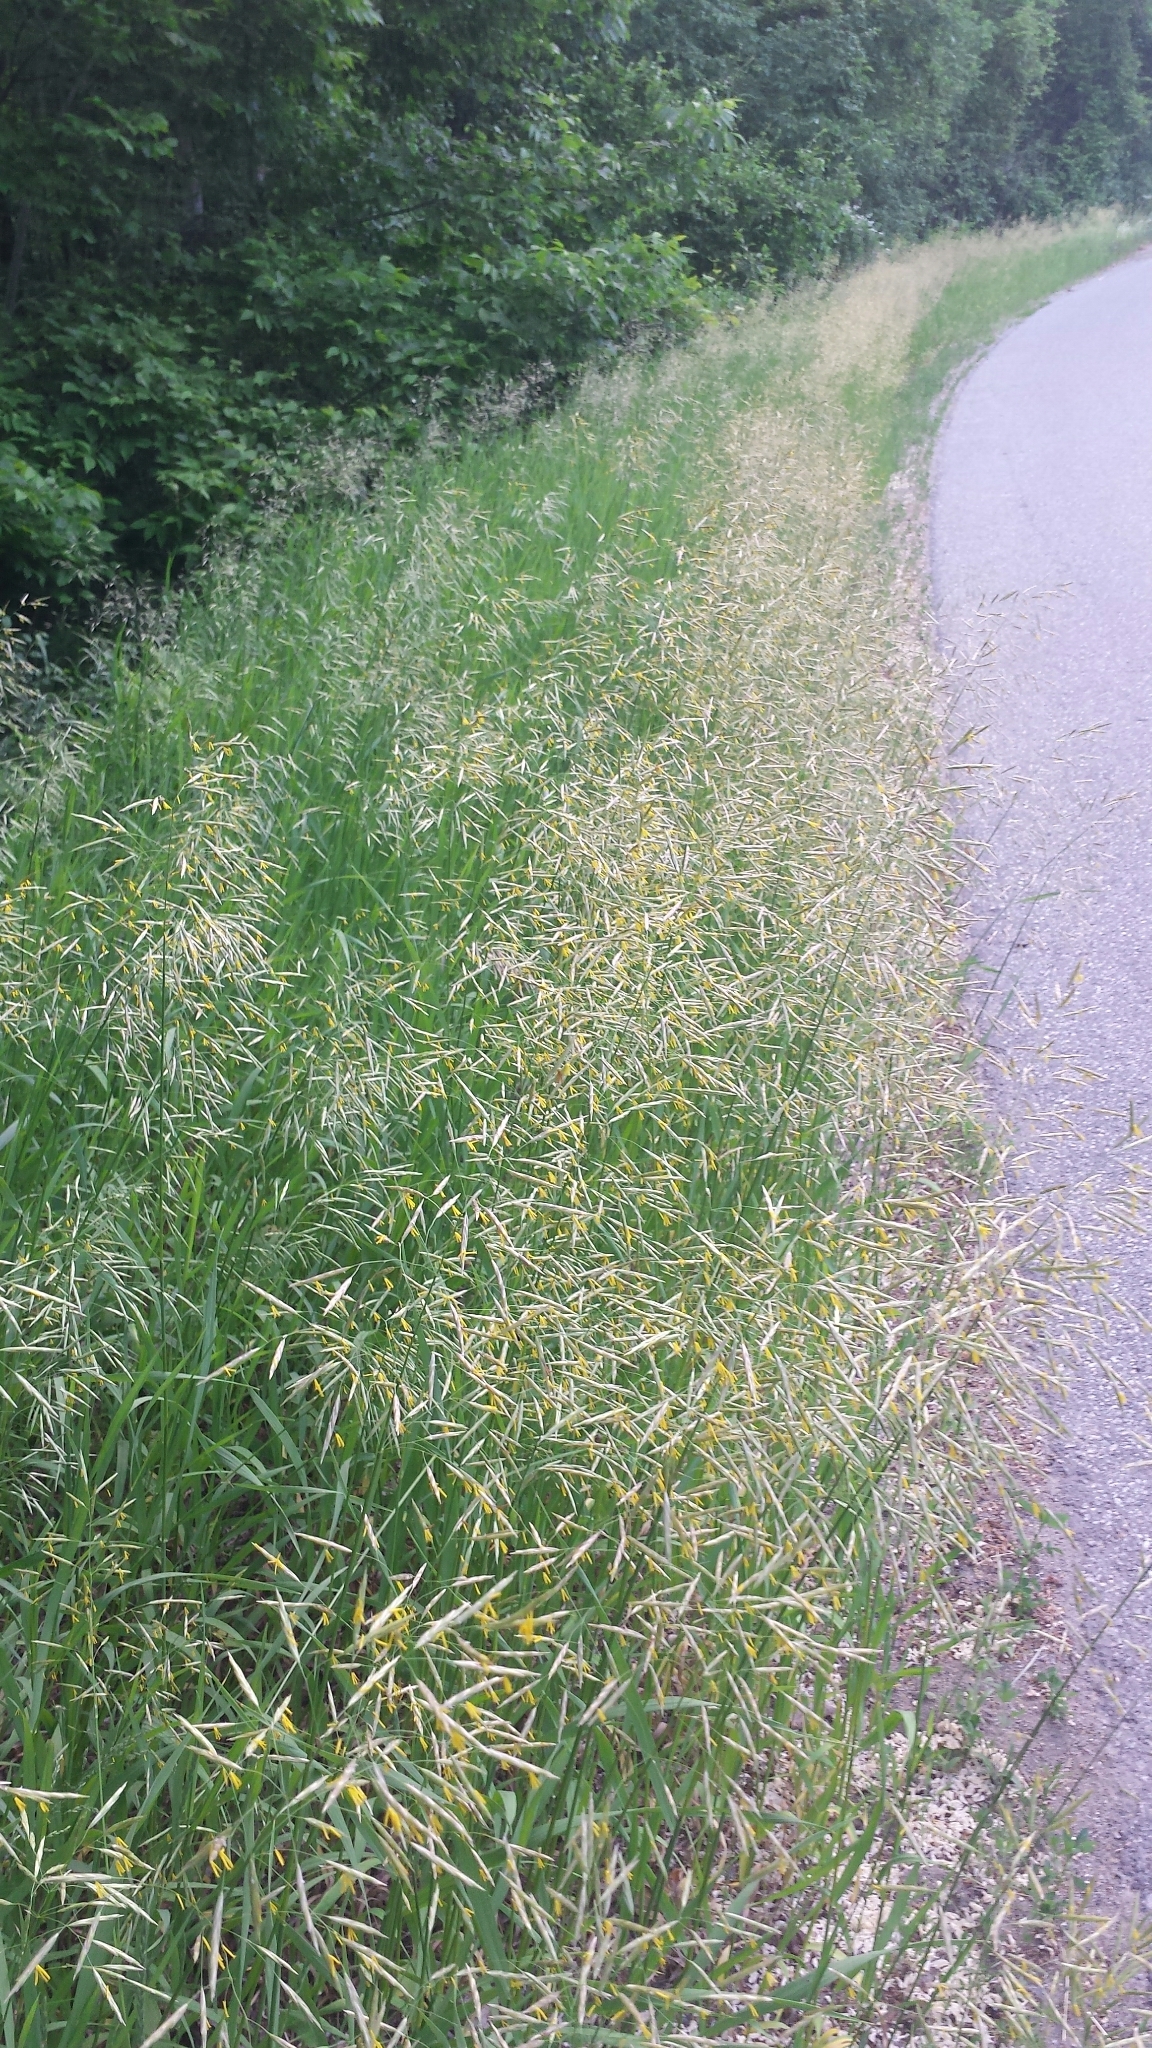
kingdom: Plantae
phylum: Tracheophyta
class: Liliopsida
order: Poales
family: Poaceae
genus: Bromus
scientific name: Bromus inermis
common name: Smooth brome
